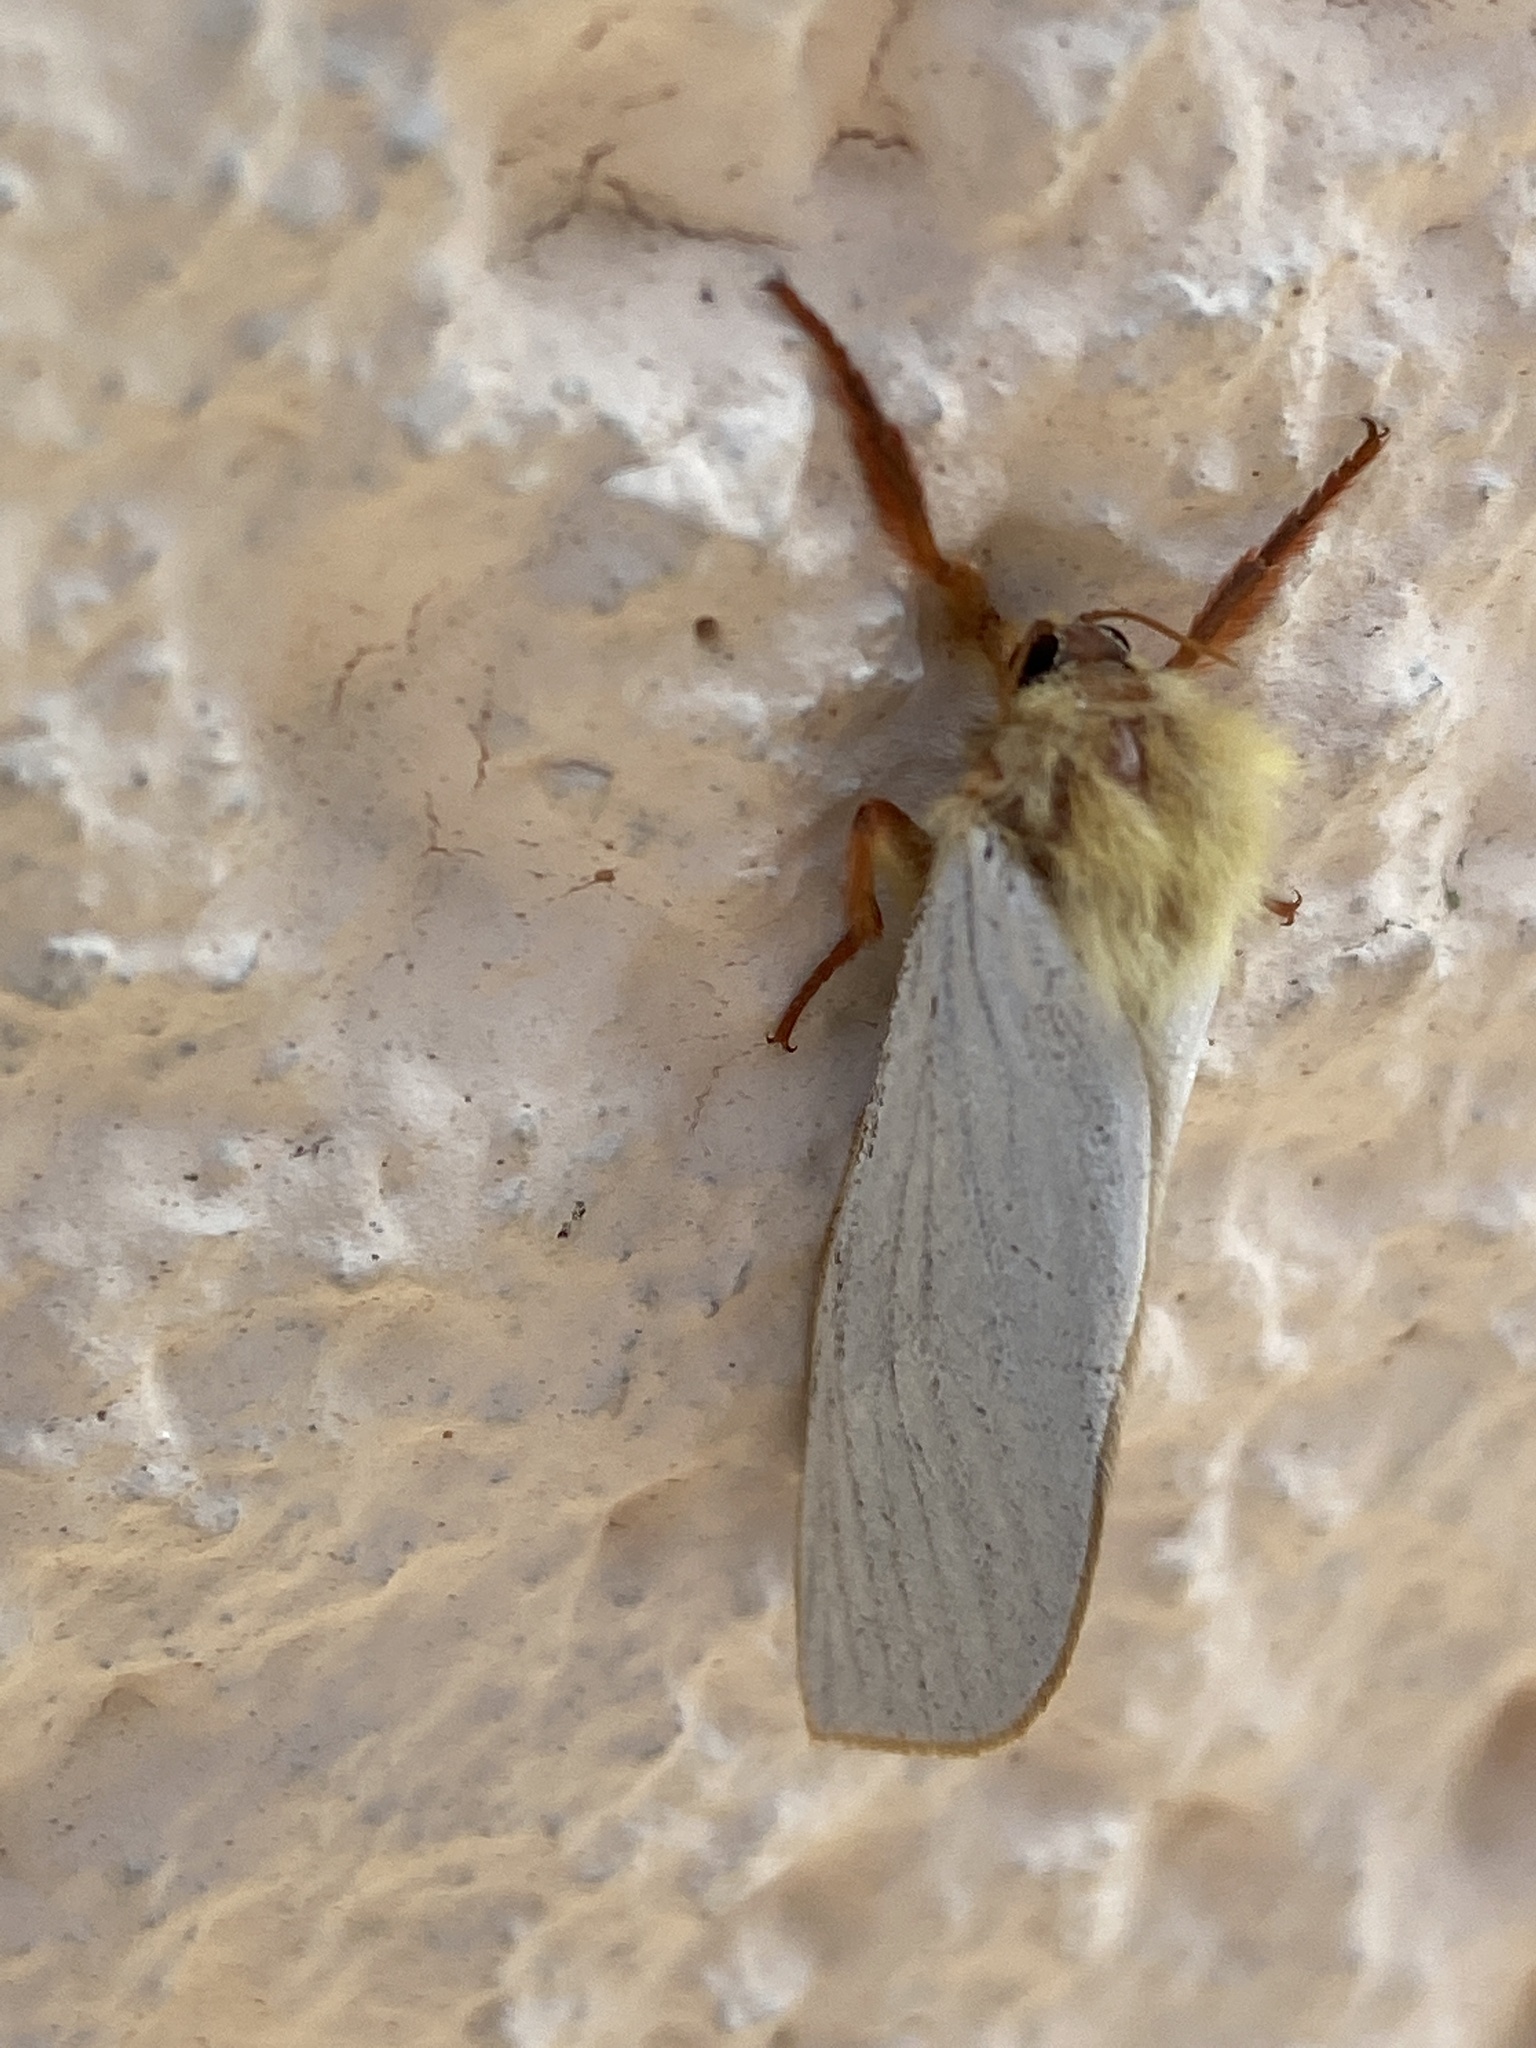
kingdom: Animalia
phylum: Arthropoda
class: Insecta
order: Lepidoptera
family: Hepialidae
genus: Hepialus
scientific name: Hepialus humuli
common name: Ghost moth
